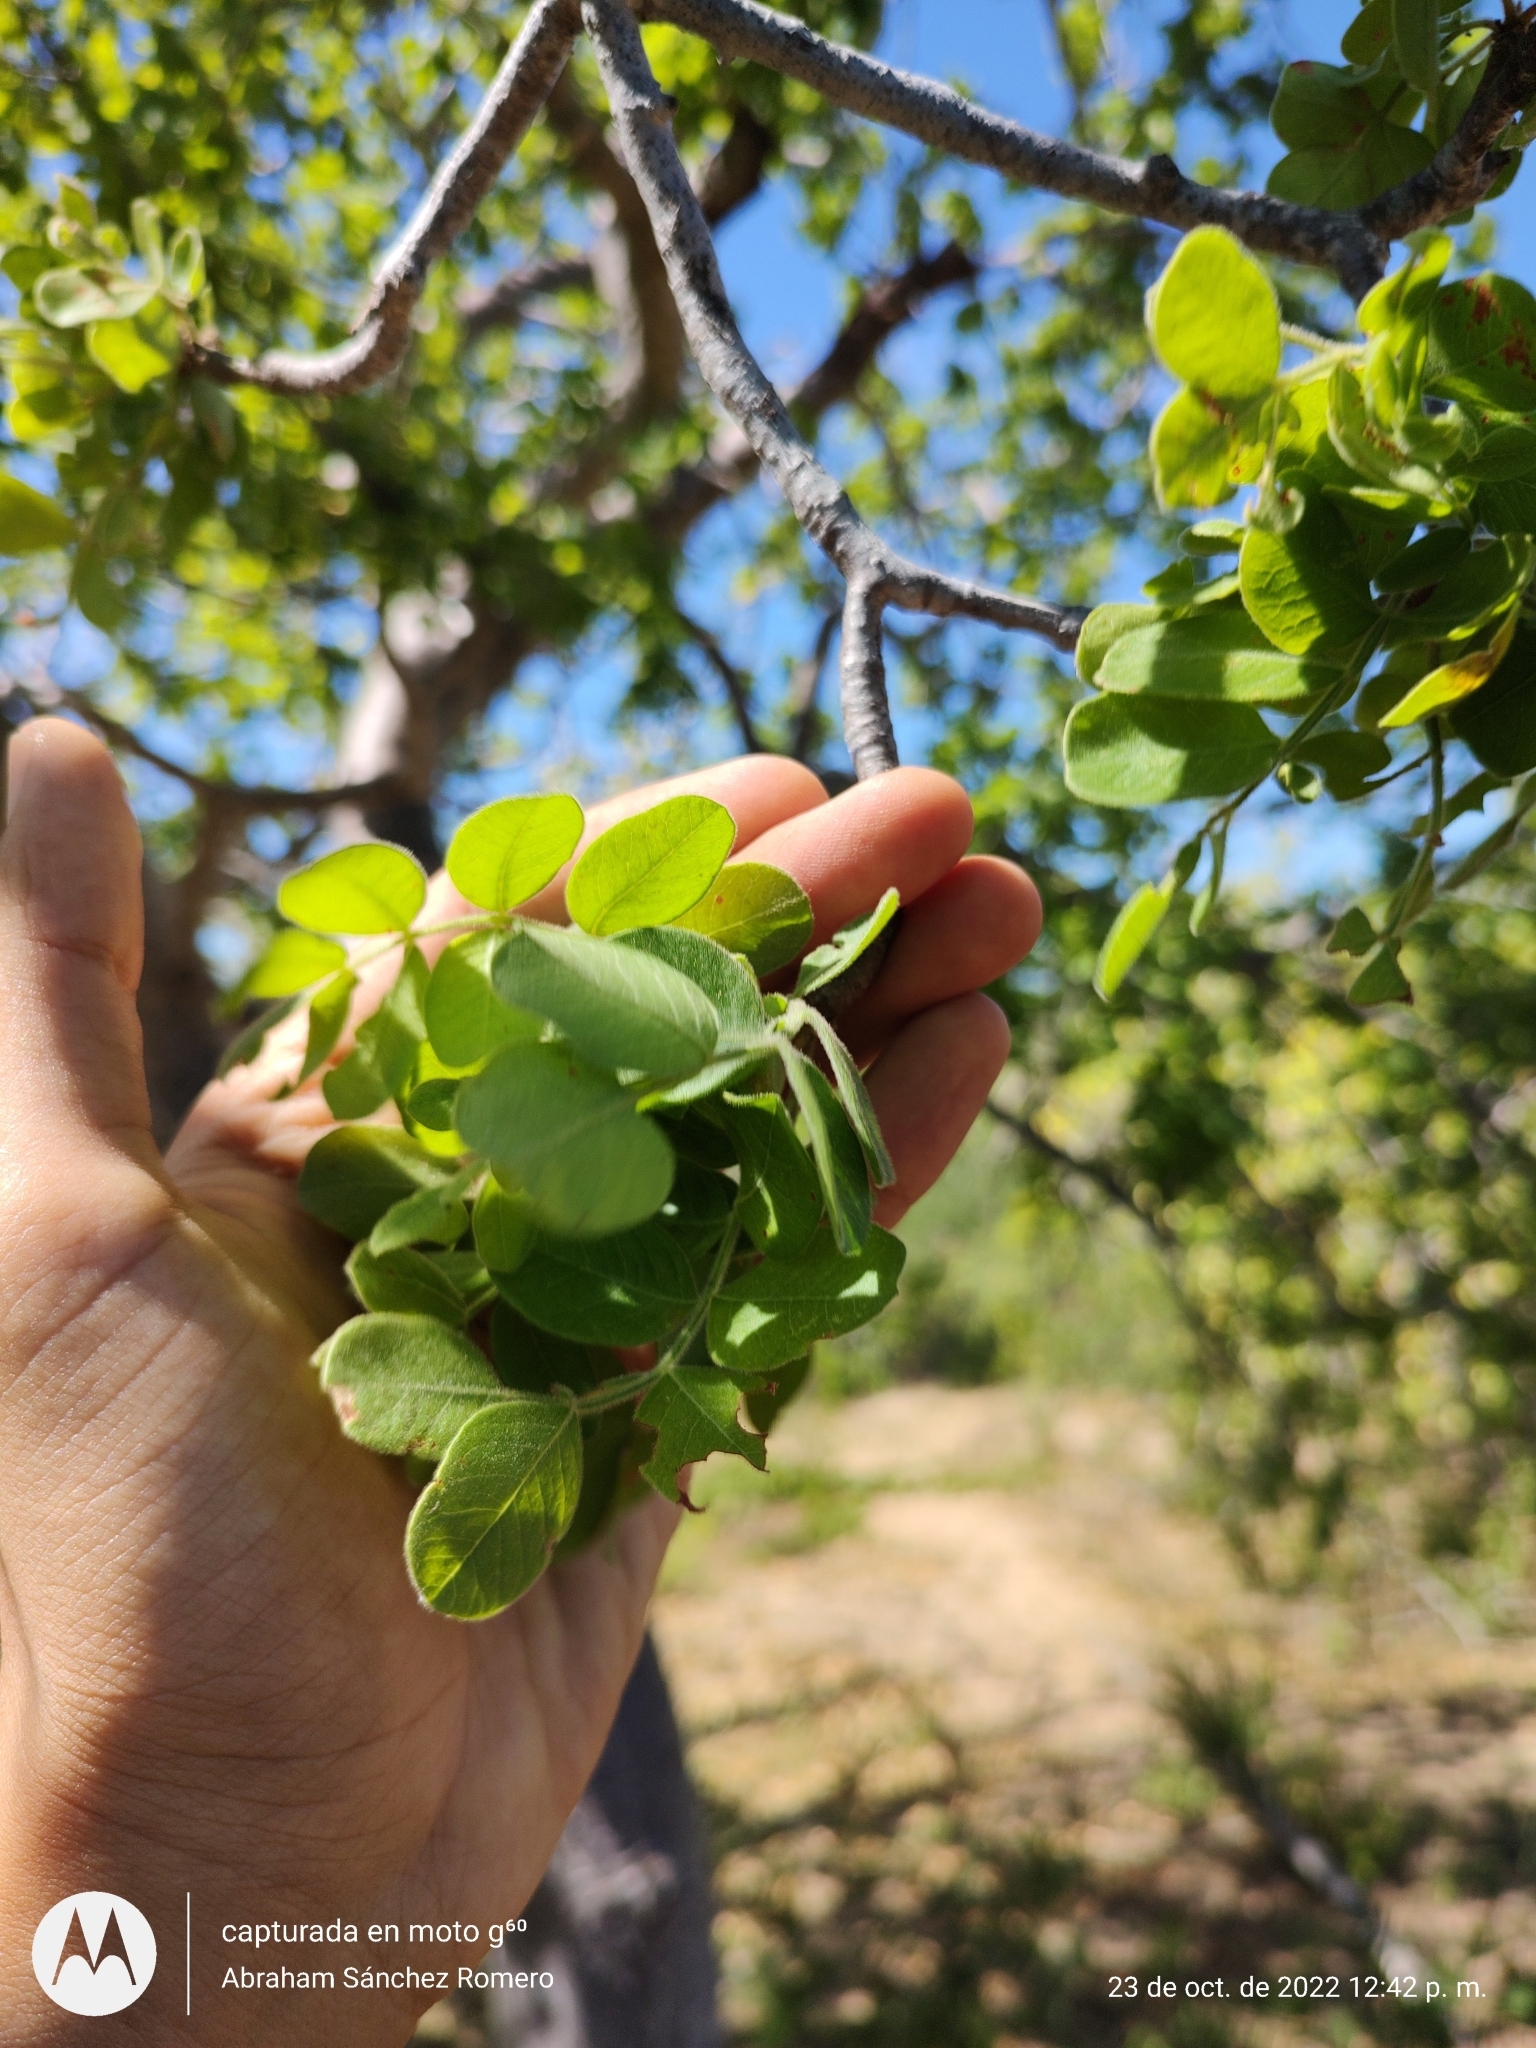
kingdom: Plantae
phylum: Tracheophyta
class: Magnoliopsida
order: Sapindales
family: Anacardiaceae
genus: Cyrtocarpa
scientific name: Cyrtocarpa edulis
